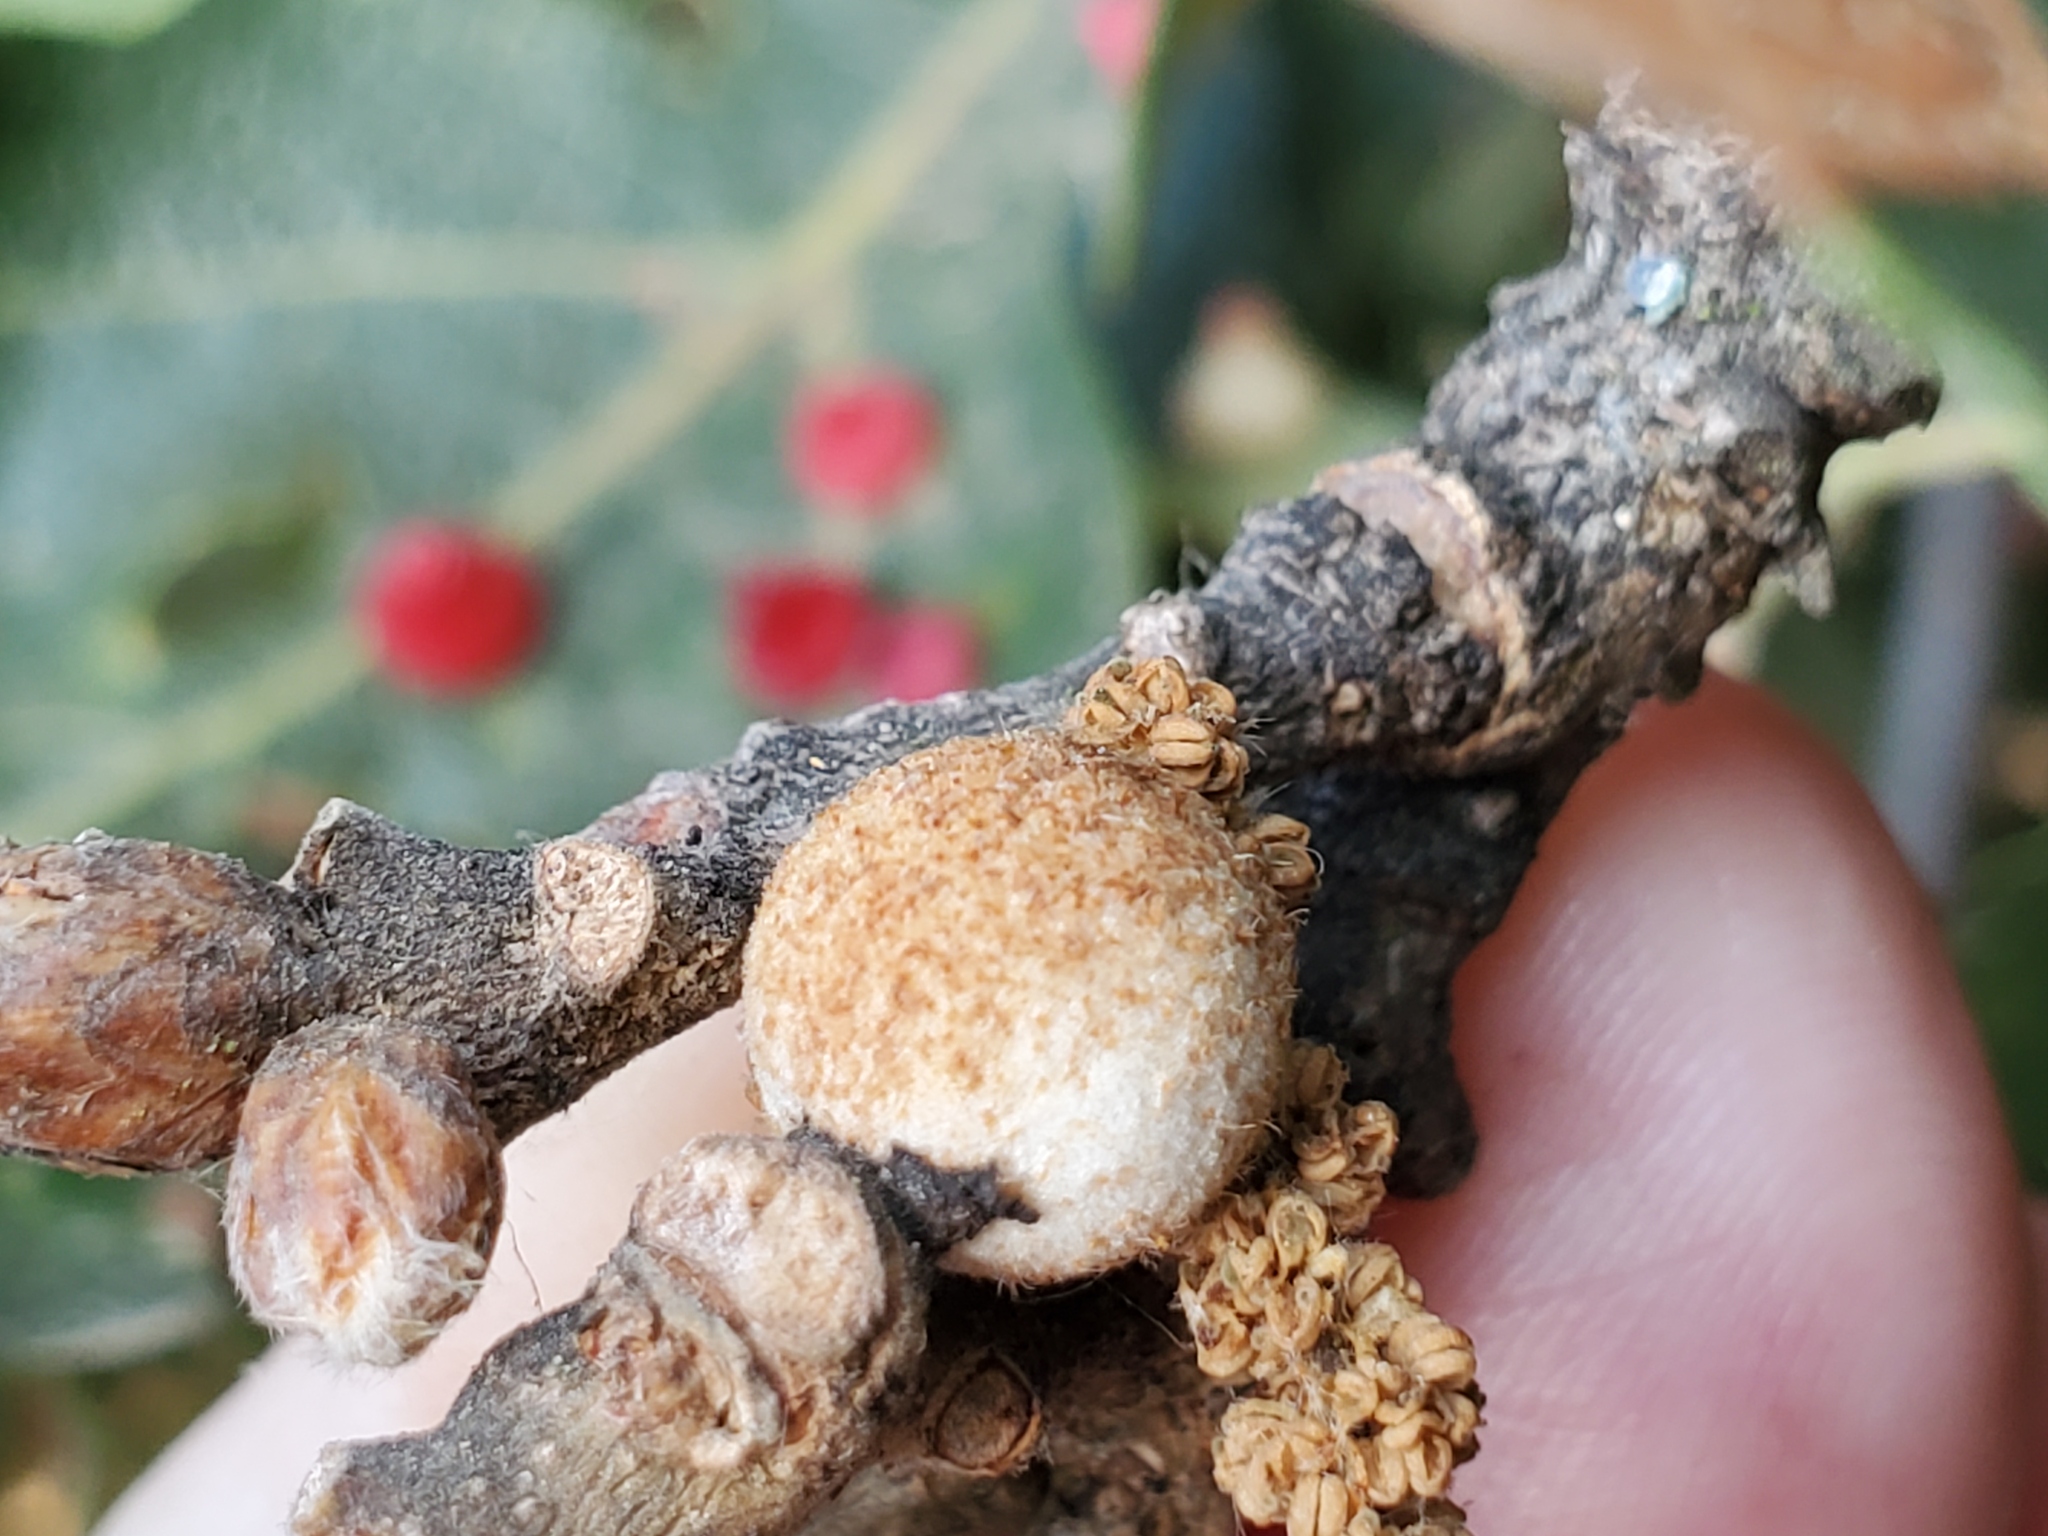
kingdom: Animalia
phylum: Arthropoda
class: Insecta
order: Hymenoptera
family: Cynipidae
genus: Burnettweldia
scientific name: Burnettweldia
